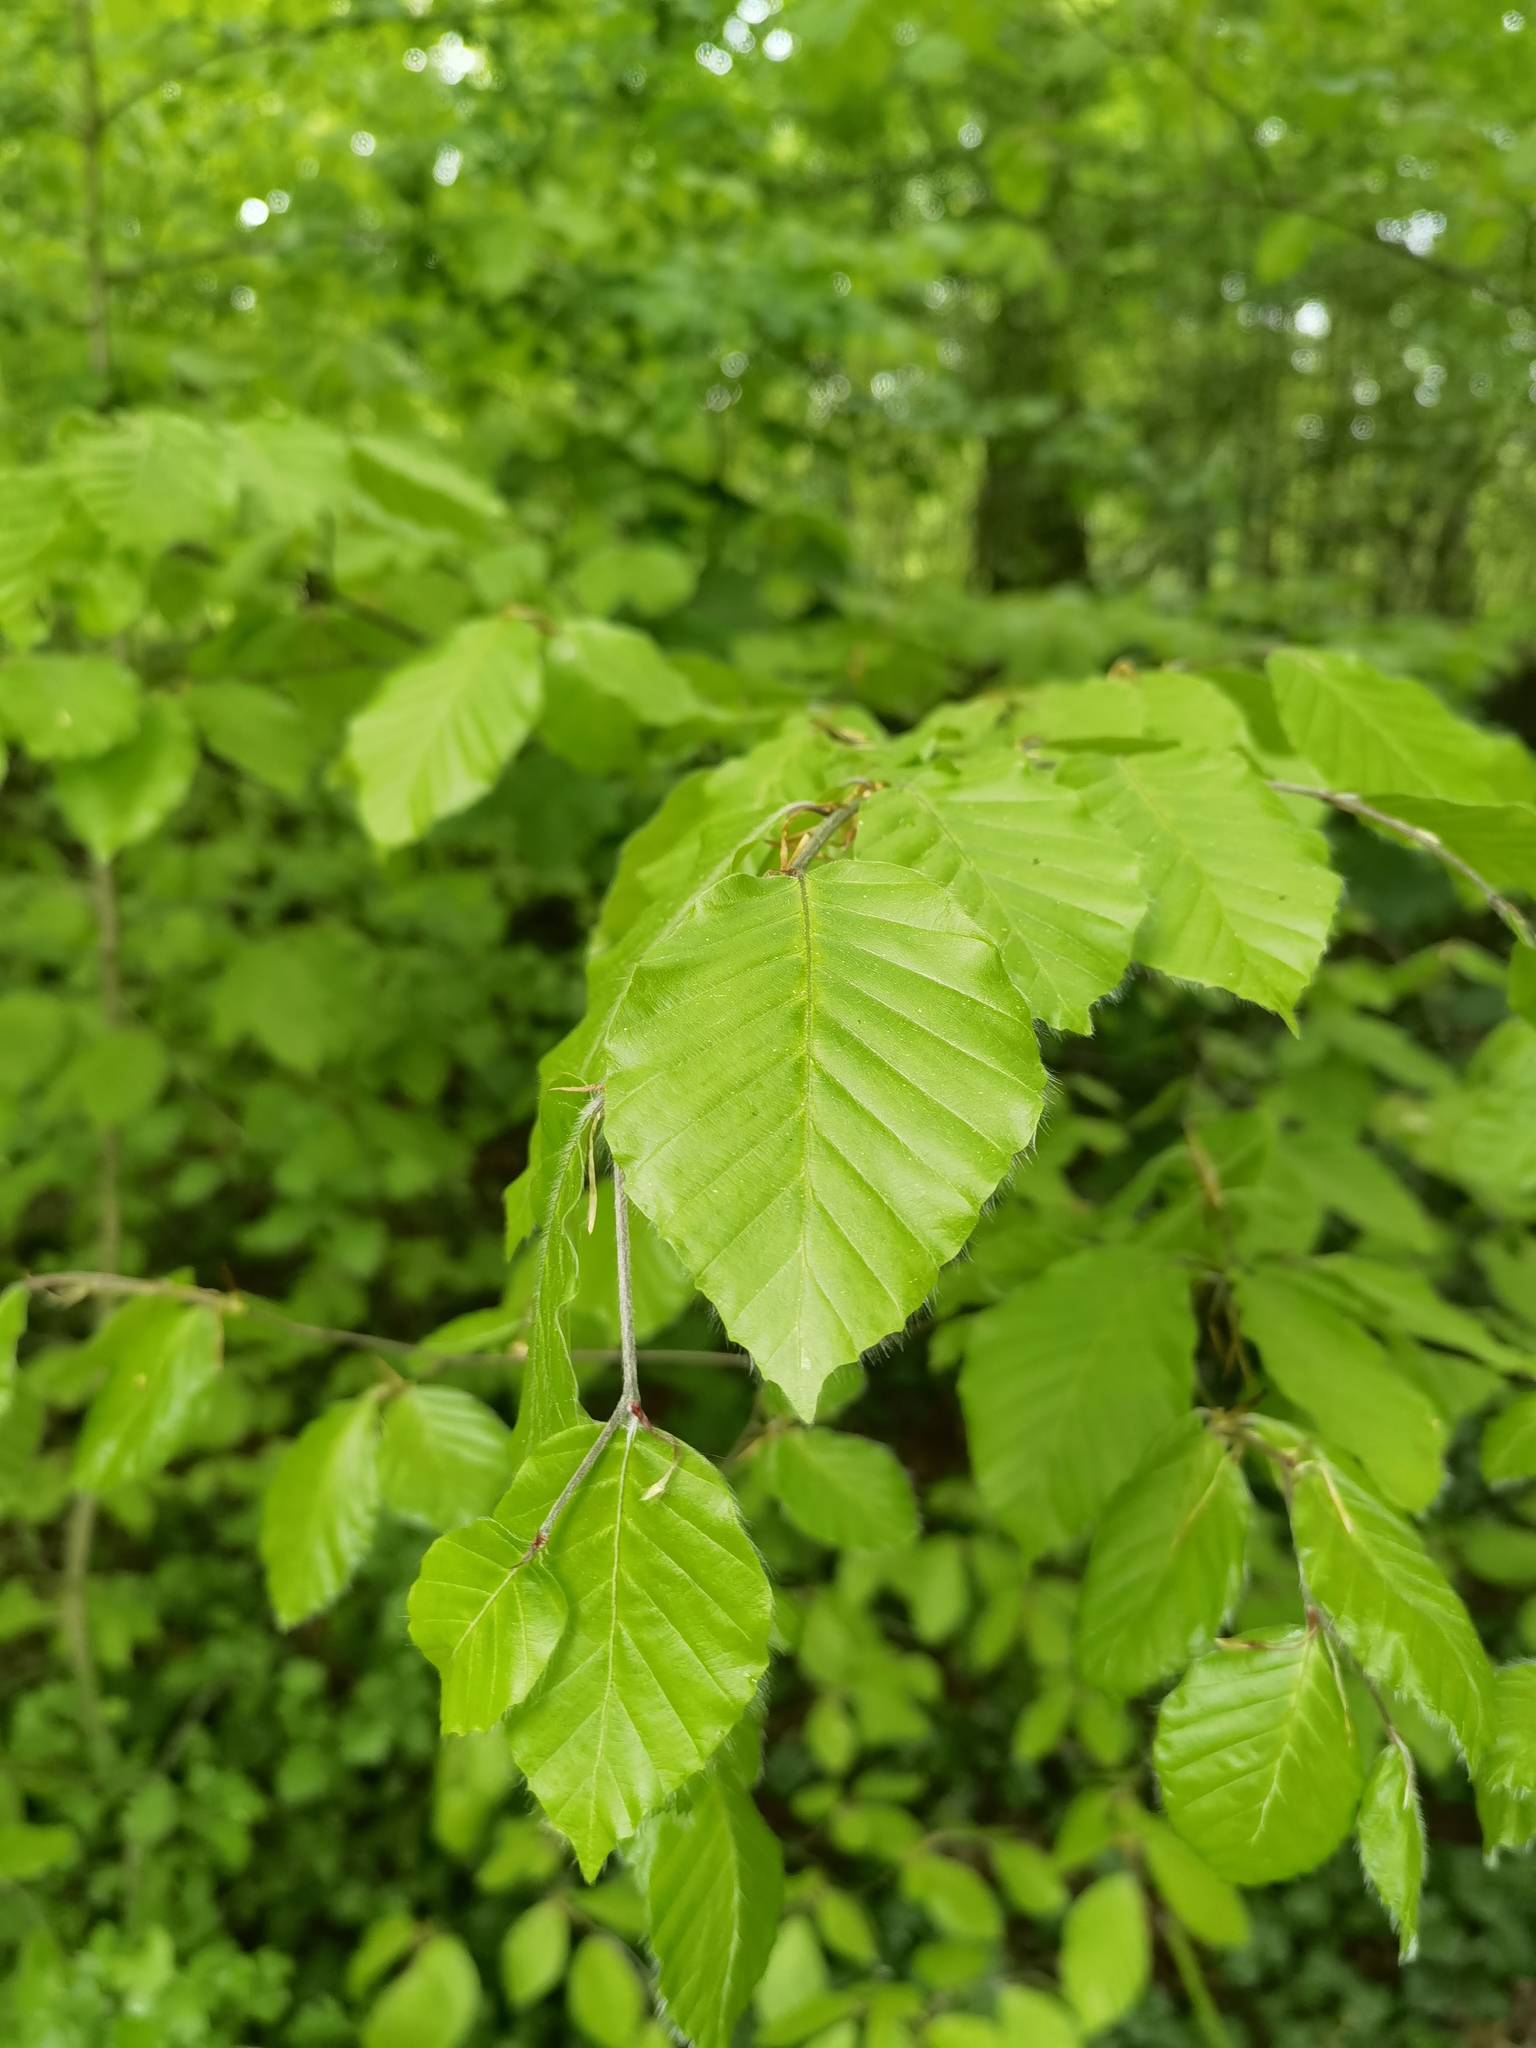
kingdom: Plantae
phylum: Tracheophyta
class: Magnoliopsida
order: Fagales
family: Fagaceae
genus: Fagus
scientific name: Fagus sylvatica
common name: Beech
